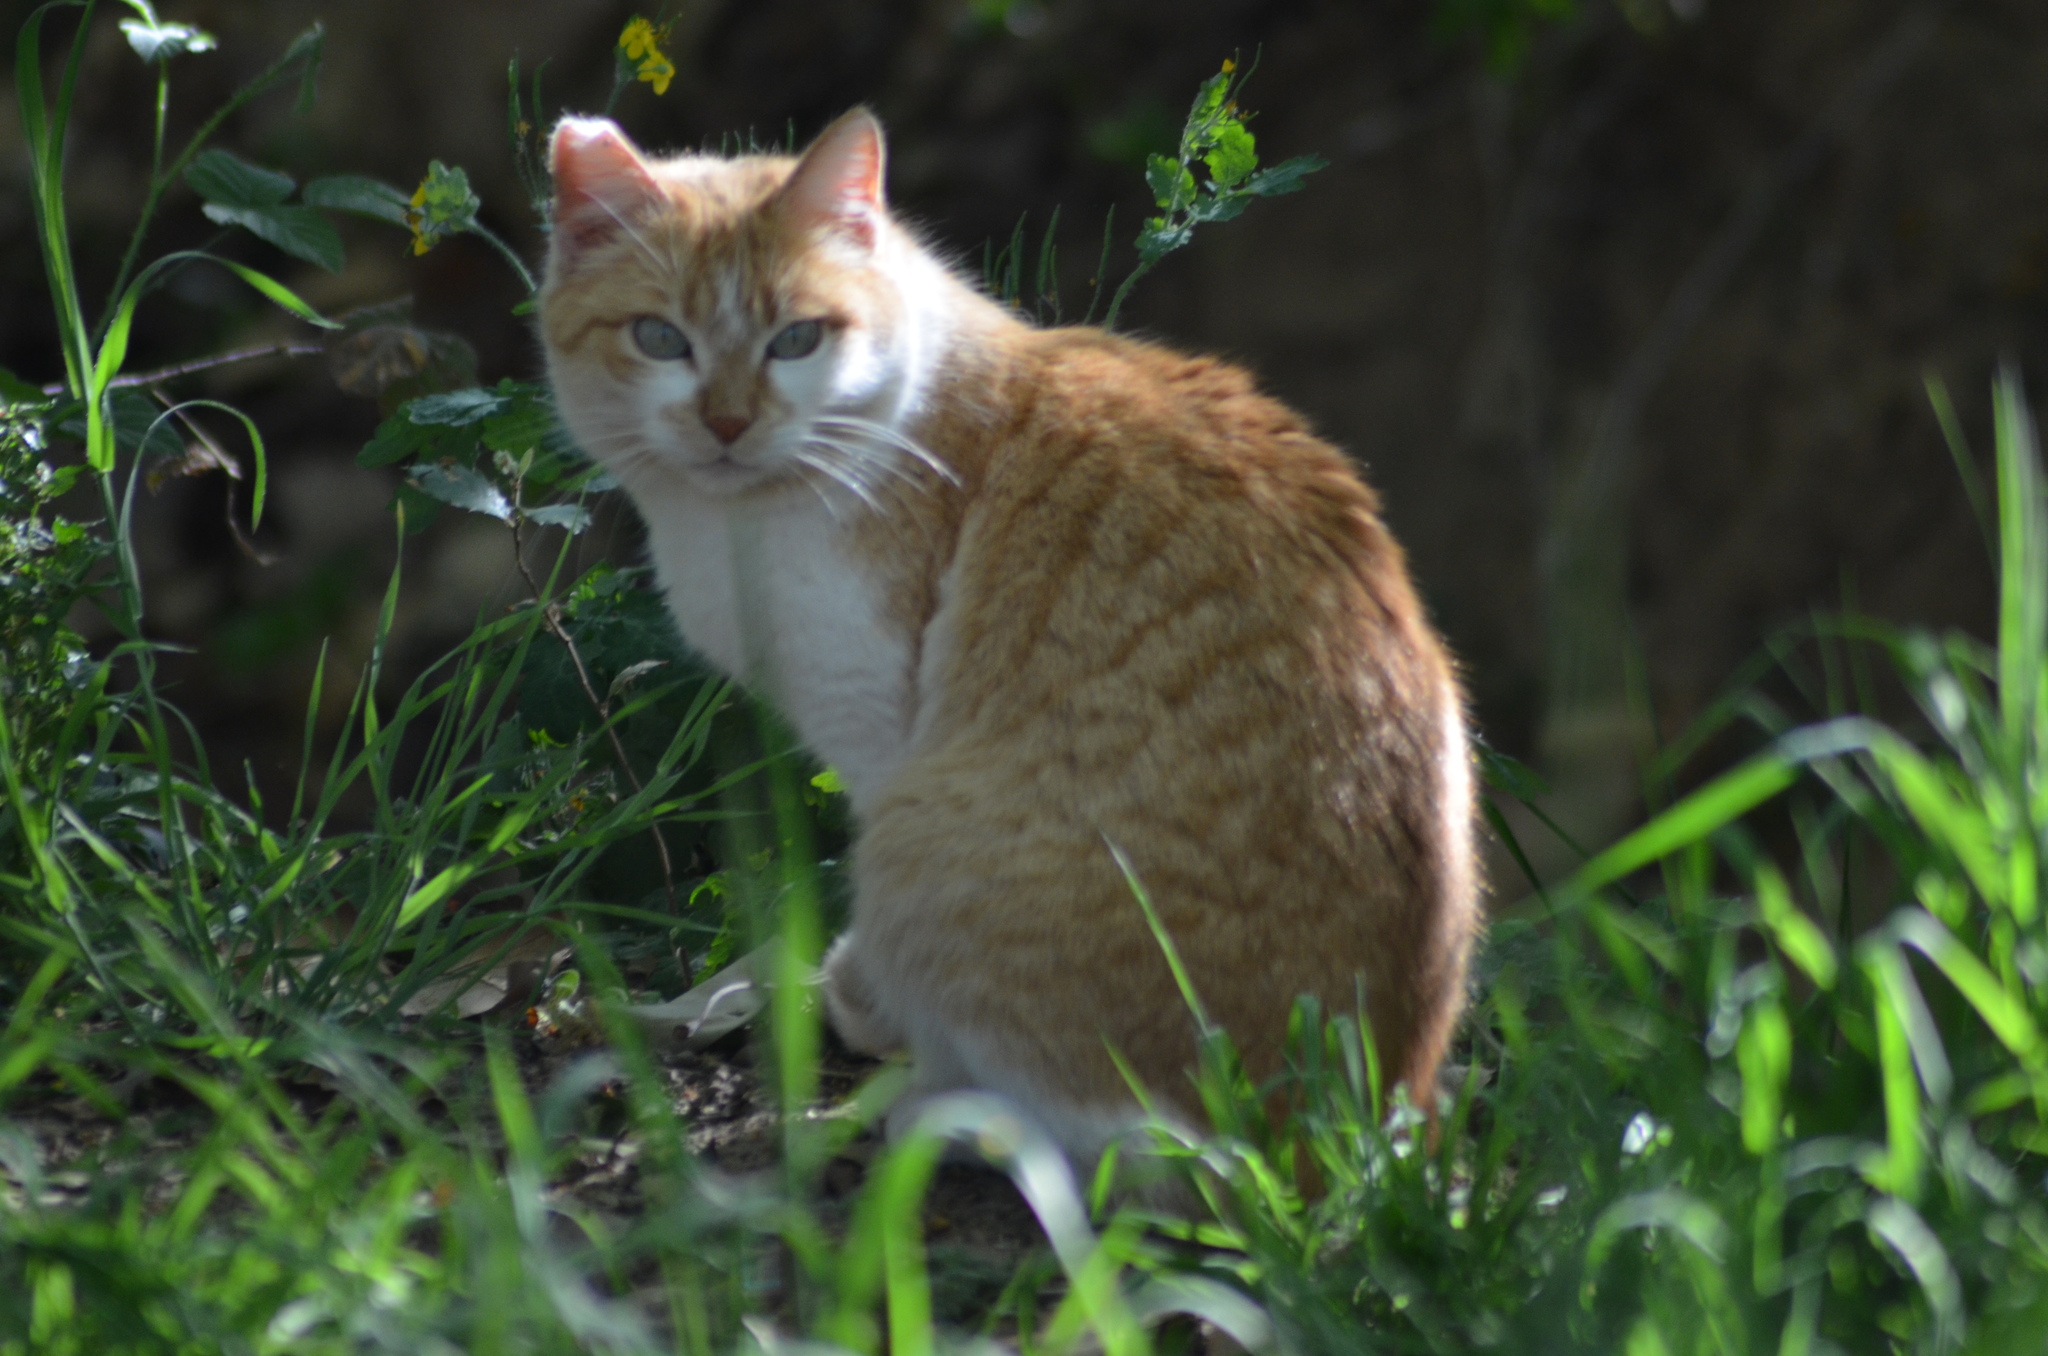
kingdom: Animalia
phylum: Chordata
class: Mammalia
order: Carnivora
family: Felidae
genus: Felis
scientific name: Felis catus
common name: Domestic cat
